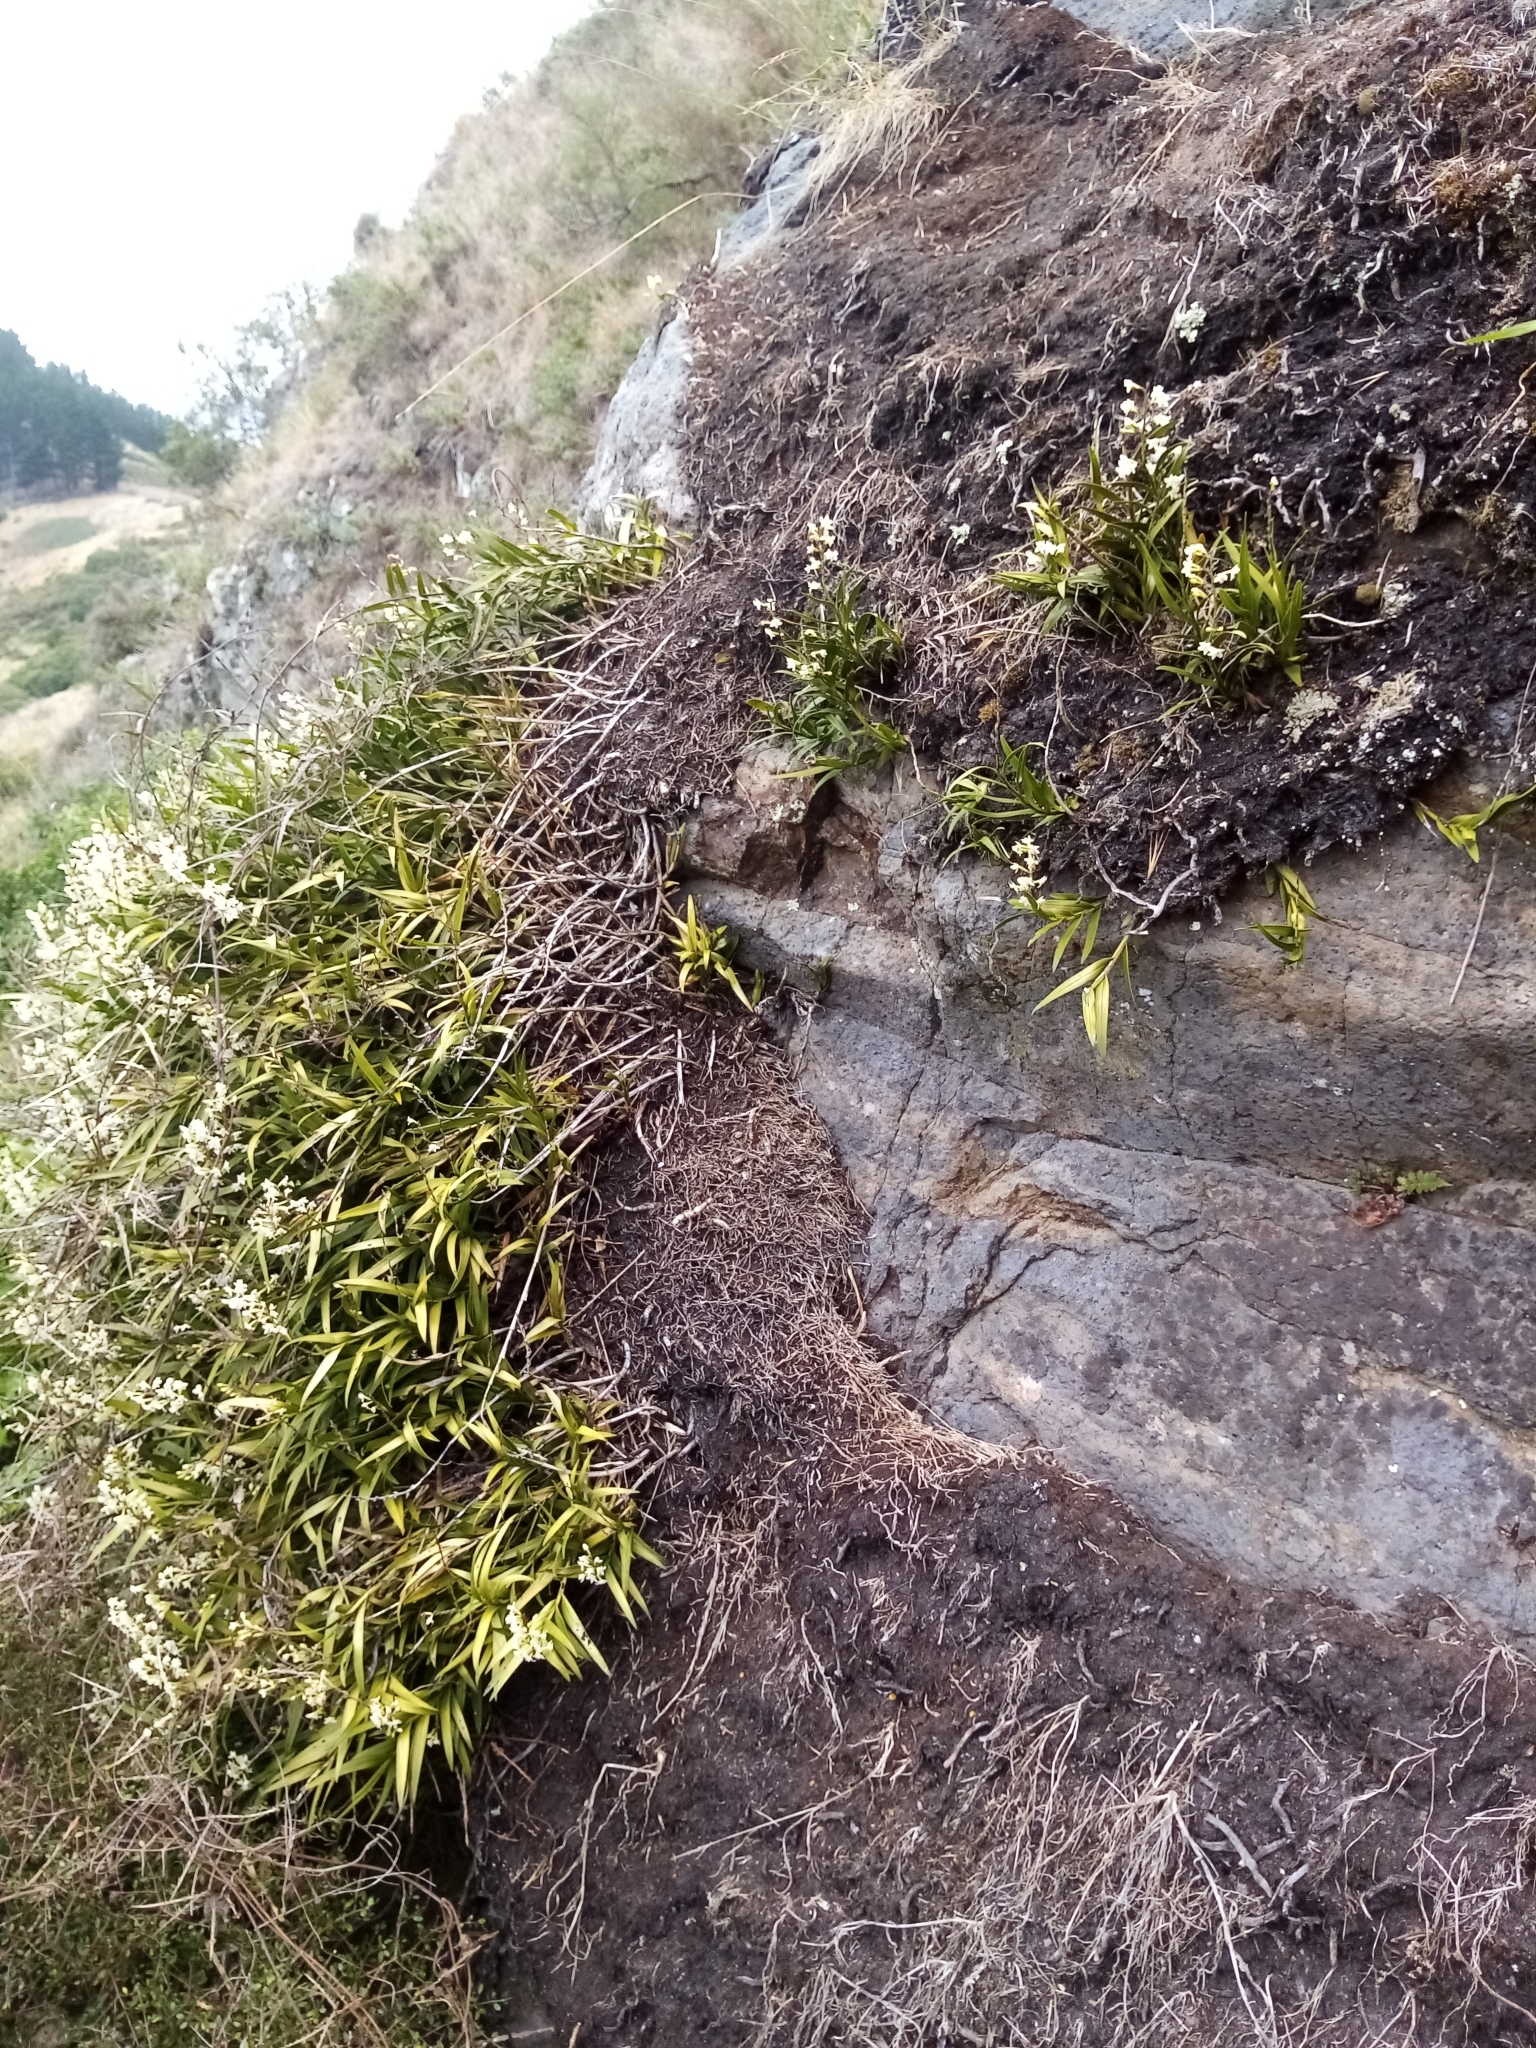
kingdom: Plantae
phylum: Tracheophyta
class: Liliopsida
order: Asparagales
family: Orchidaceae
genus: Earina
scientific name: Earina autumnalis
